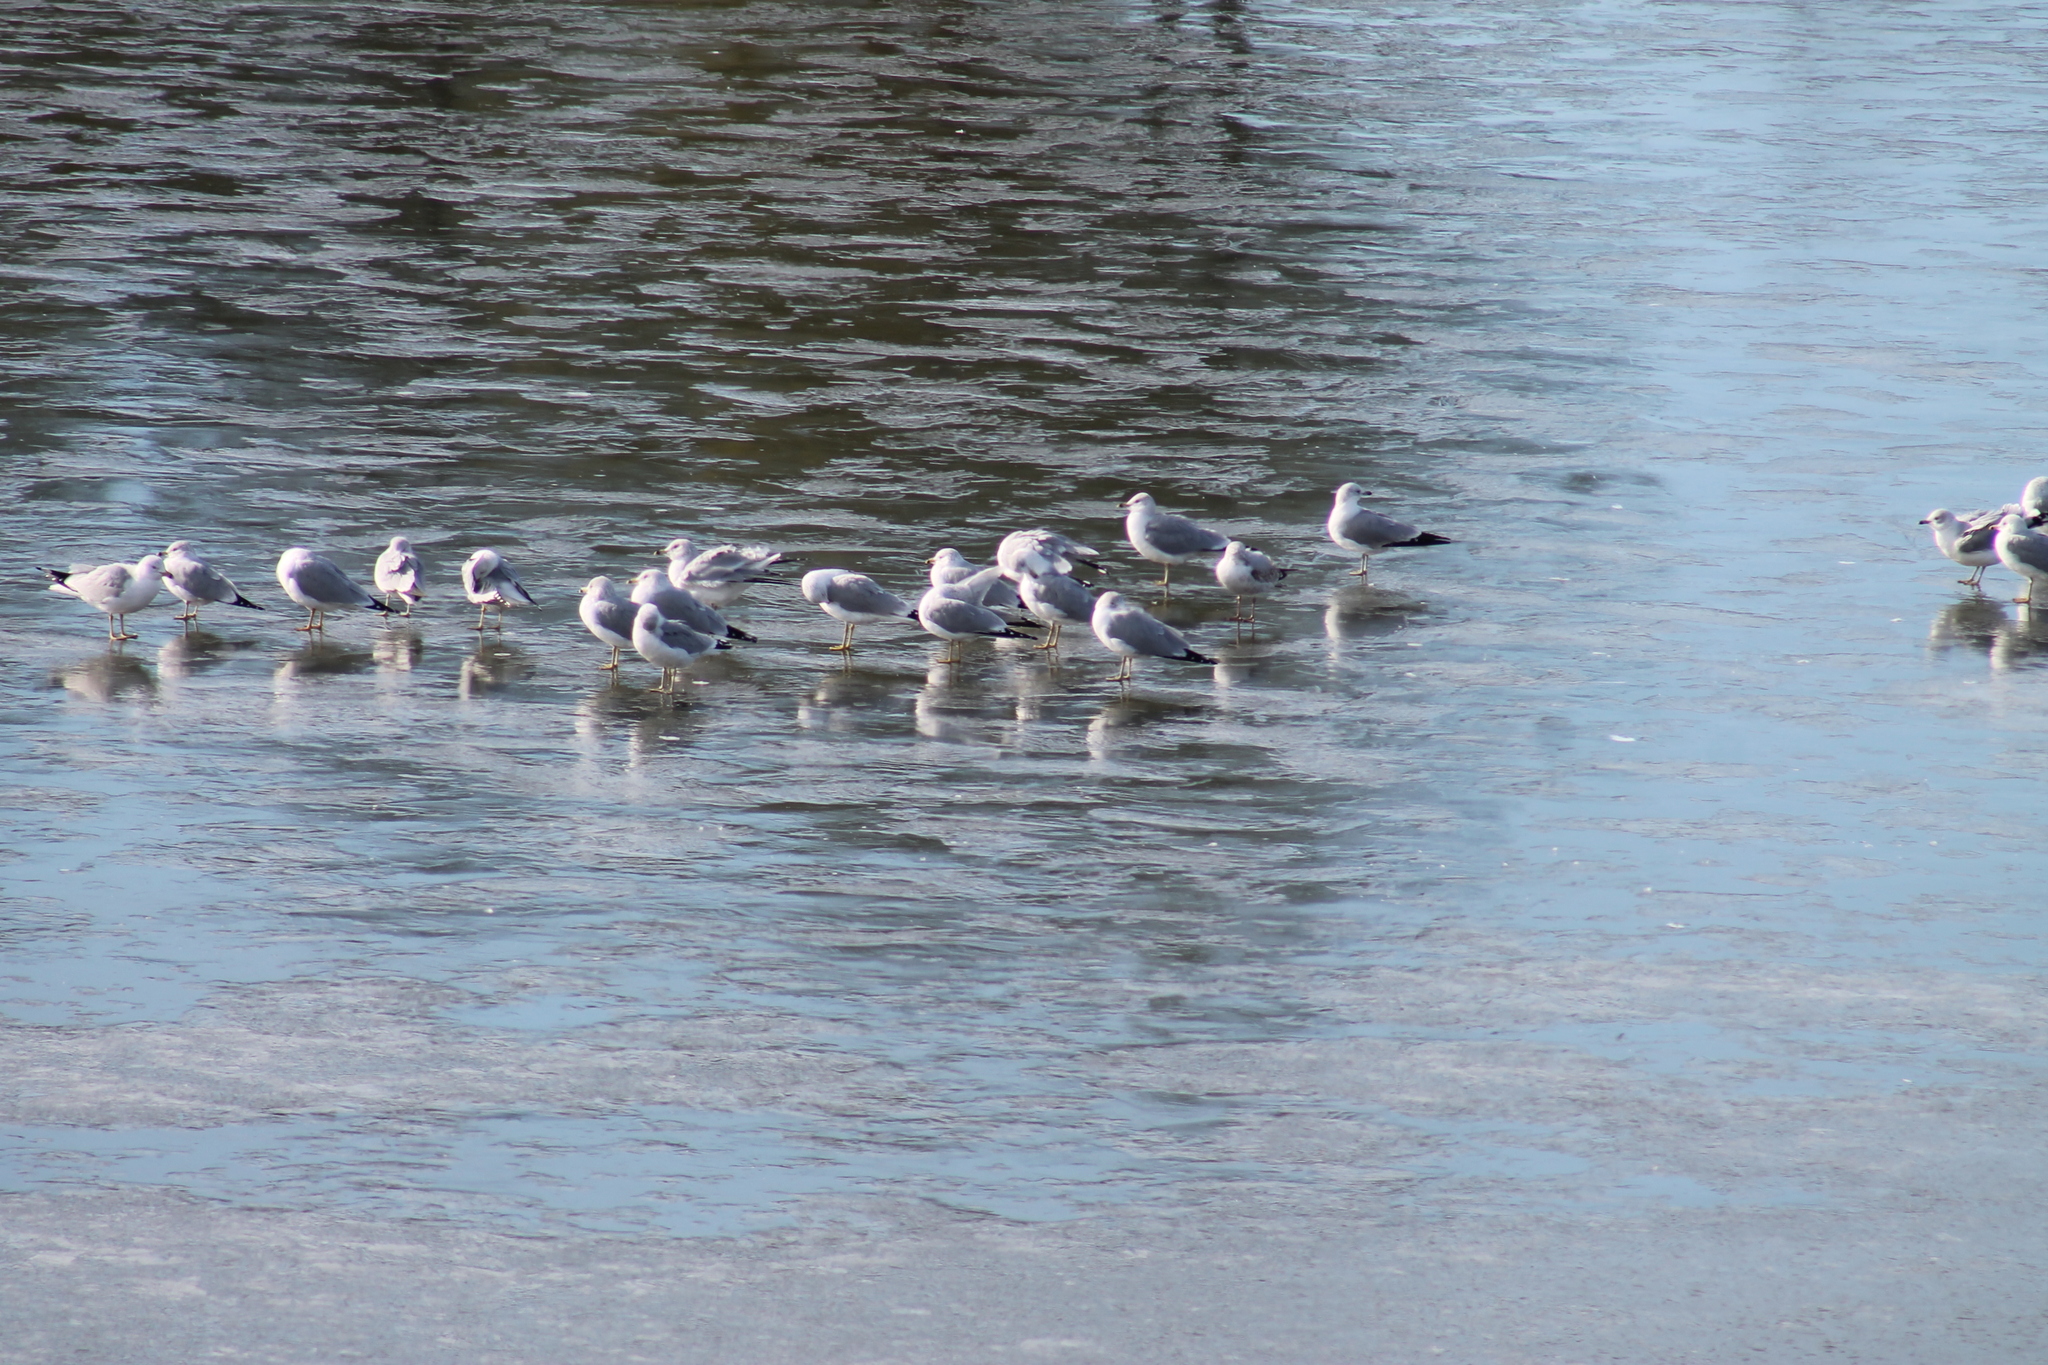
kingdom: Animalia
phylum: Chordata
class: Aves
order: Charadriiformes
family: Laridae
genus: Larus
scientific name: Larus delawarensis
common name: Ring-billed gull
